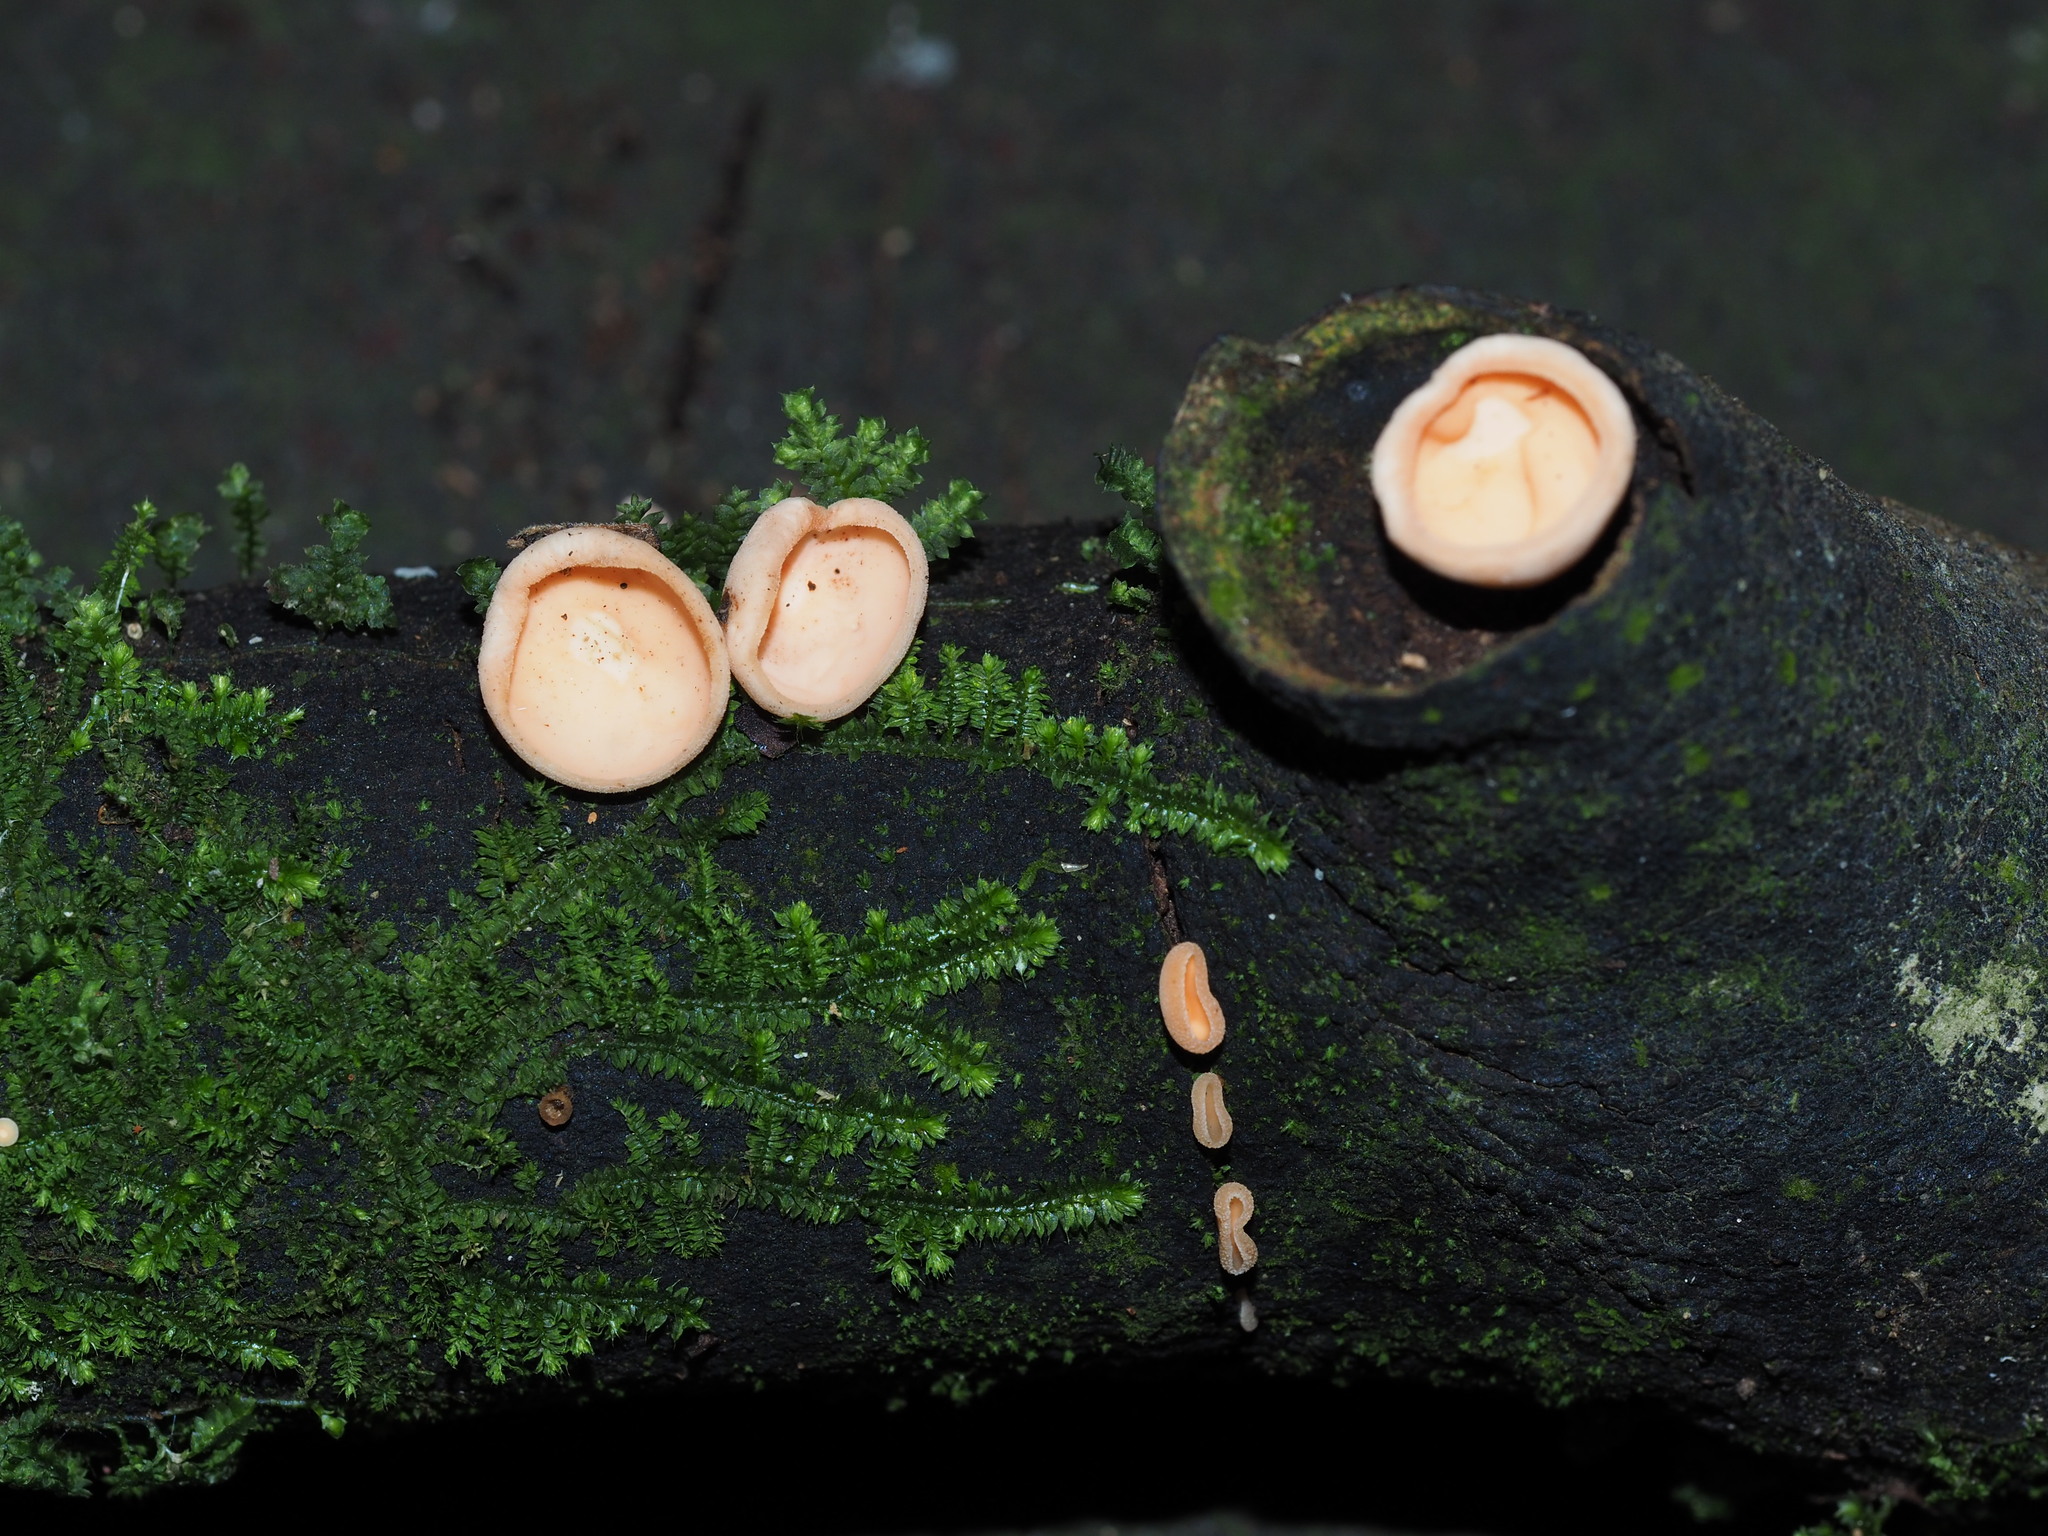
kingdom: Fungi
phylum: Ascomycota
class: Pezizomycetes
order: Pezizales
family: Sarcoscyphaceae
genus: Cookeina
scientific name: Cookeina colensoi
